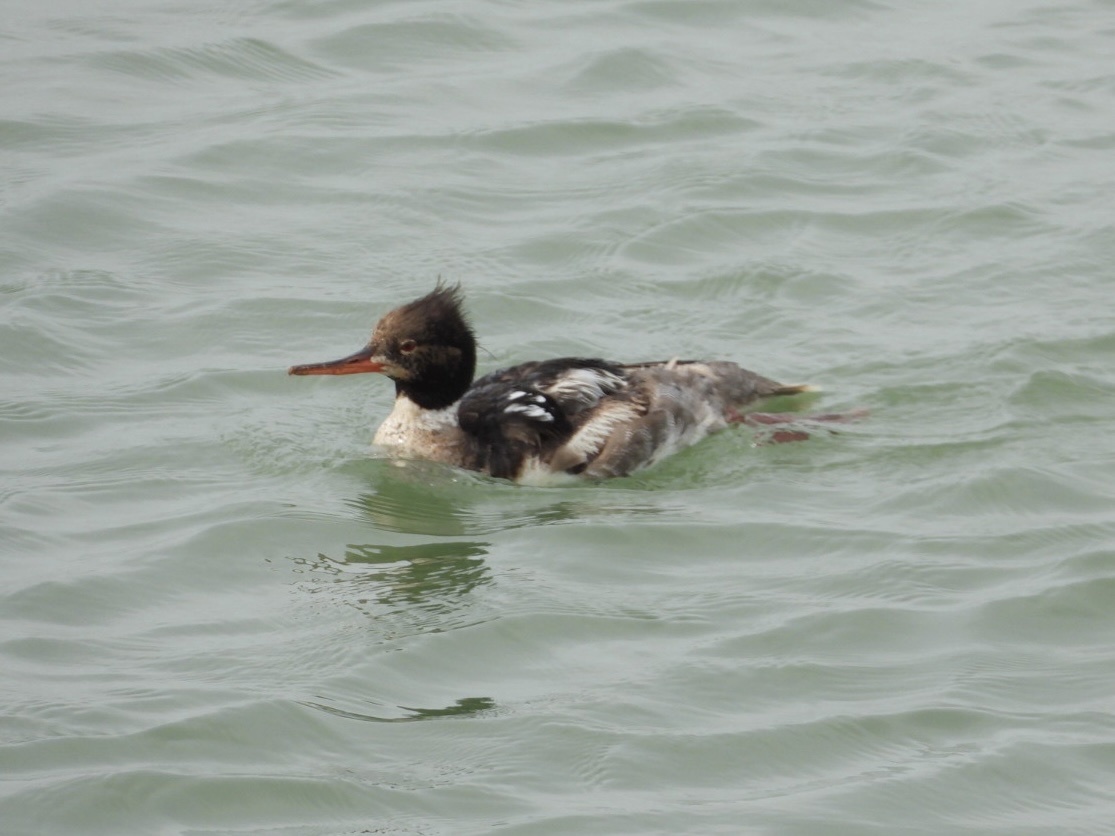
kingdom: Animalia
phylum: Chordata
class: Aves
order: Anseriformes
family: Anatidae
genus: Mergus
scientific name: Mergus serrator
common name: Red-breasted merganser
